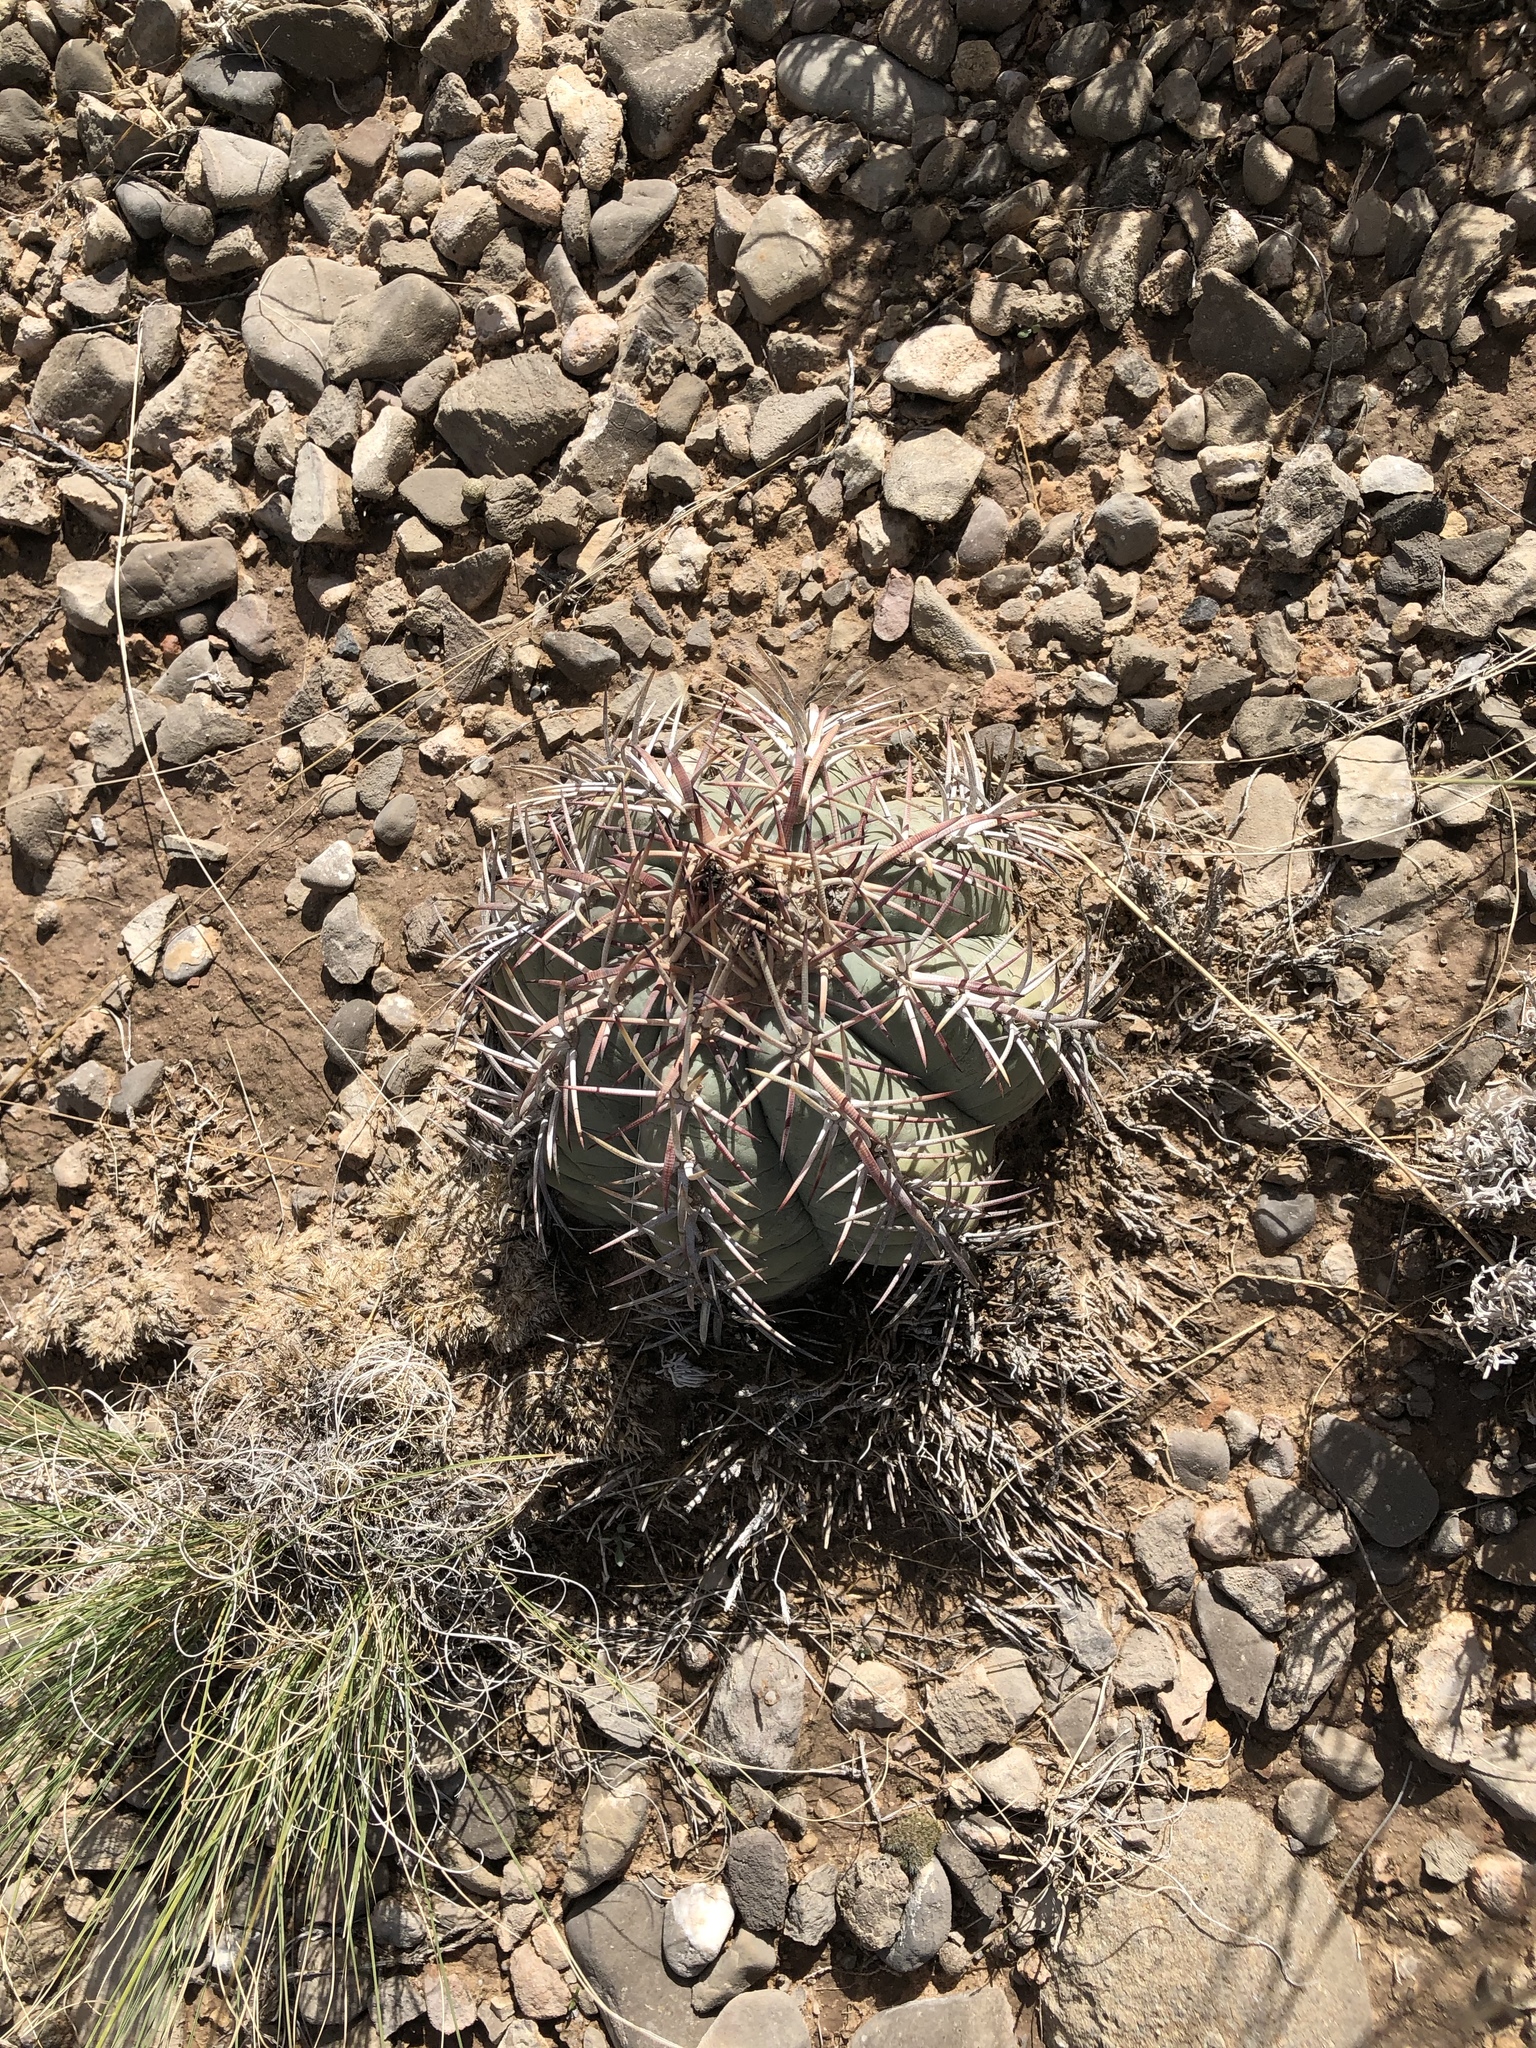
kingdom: Plantae
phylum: Tracheophyta
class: Magnoliopsida
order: Caryophyllales
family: Cactaceae
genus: Echinocactus
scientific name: Echinocactus horizonthalonius
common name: Devilshead
